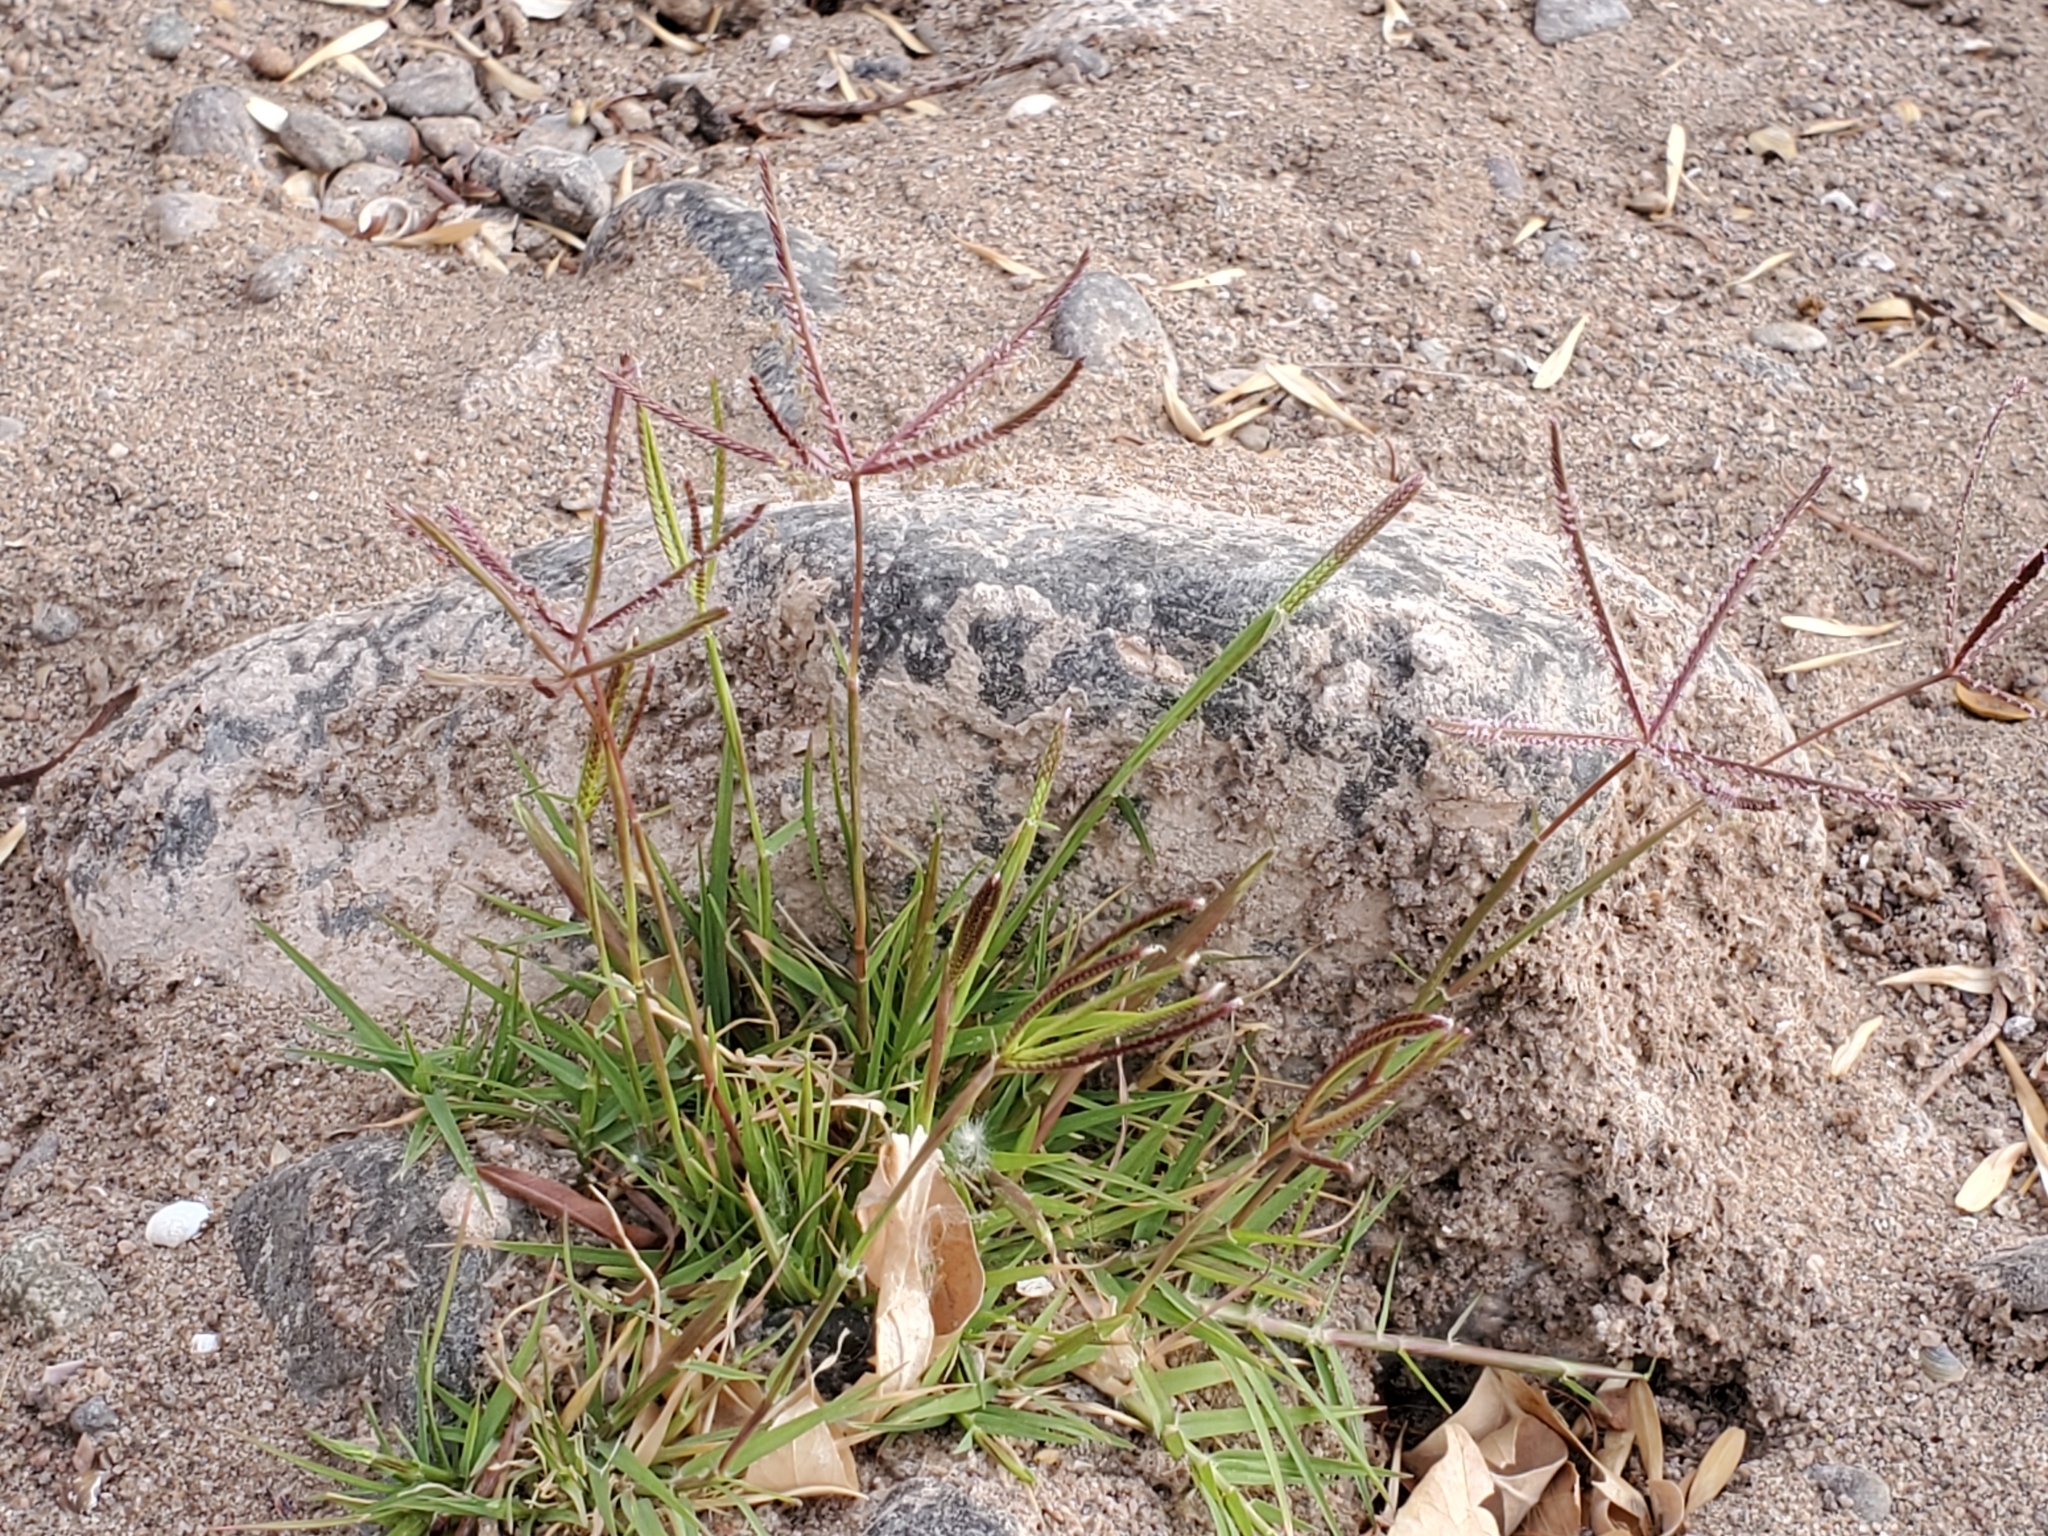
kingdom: Plantae
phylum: Tracheophyta
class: Liliopsida
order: Poales
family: Poaceae
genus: Chloris
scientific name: Chloris virgata
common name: Feathery rhodes-grass
